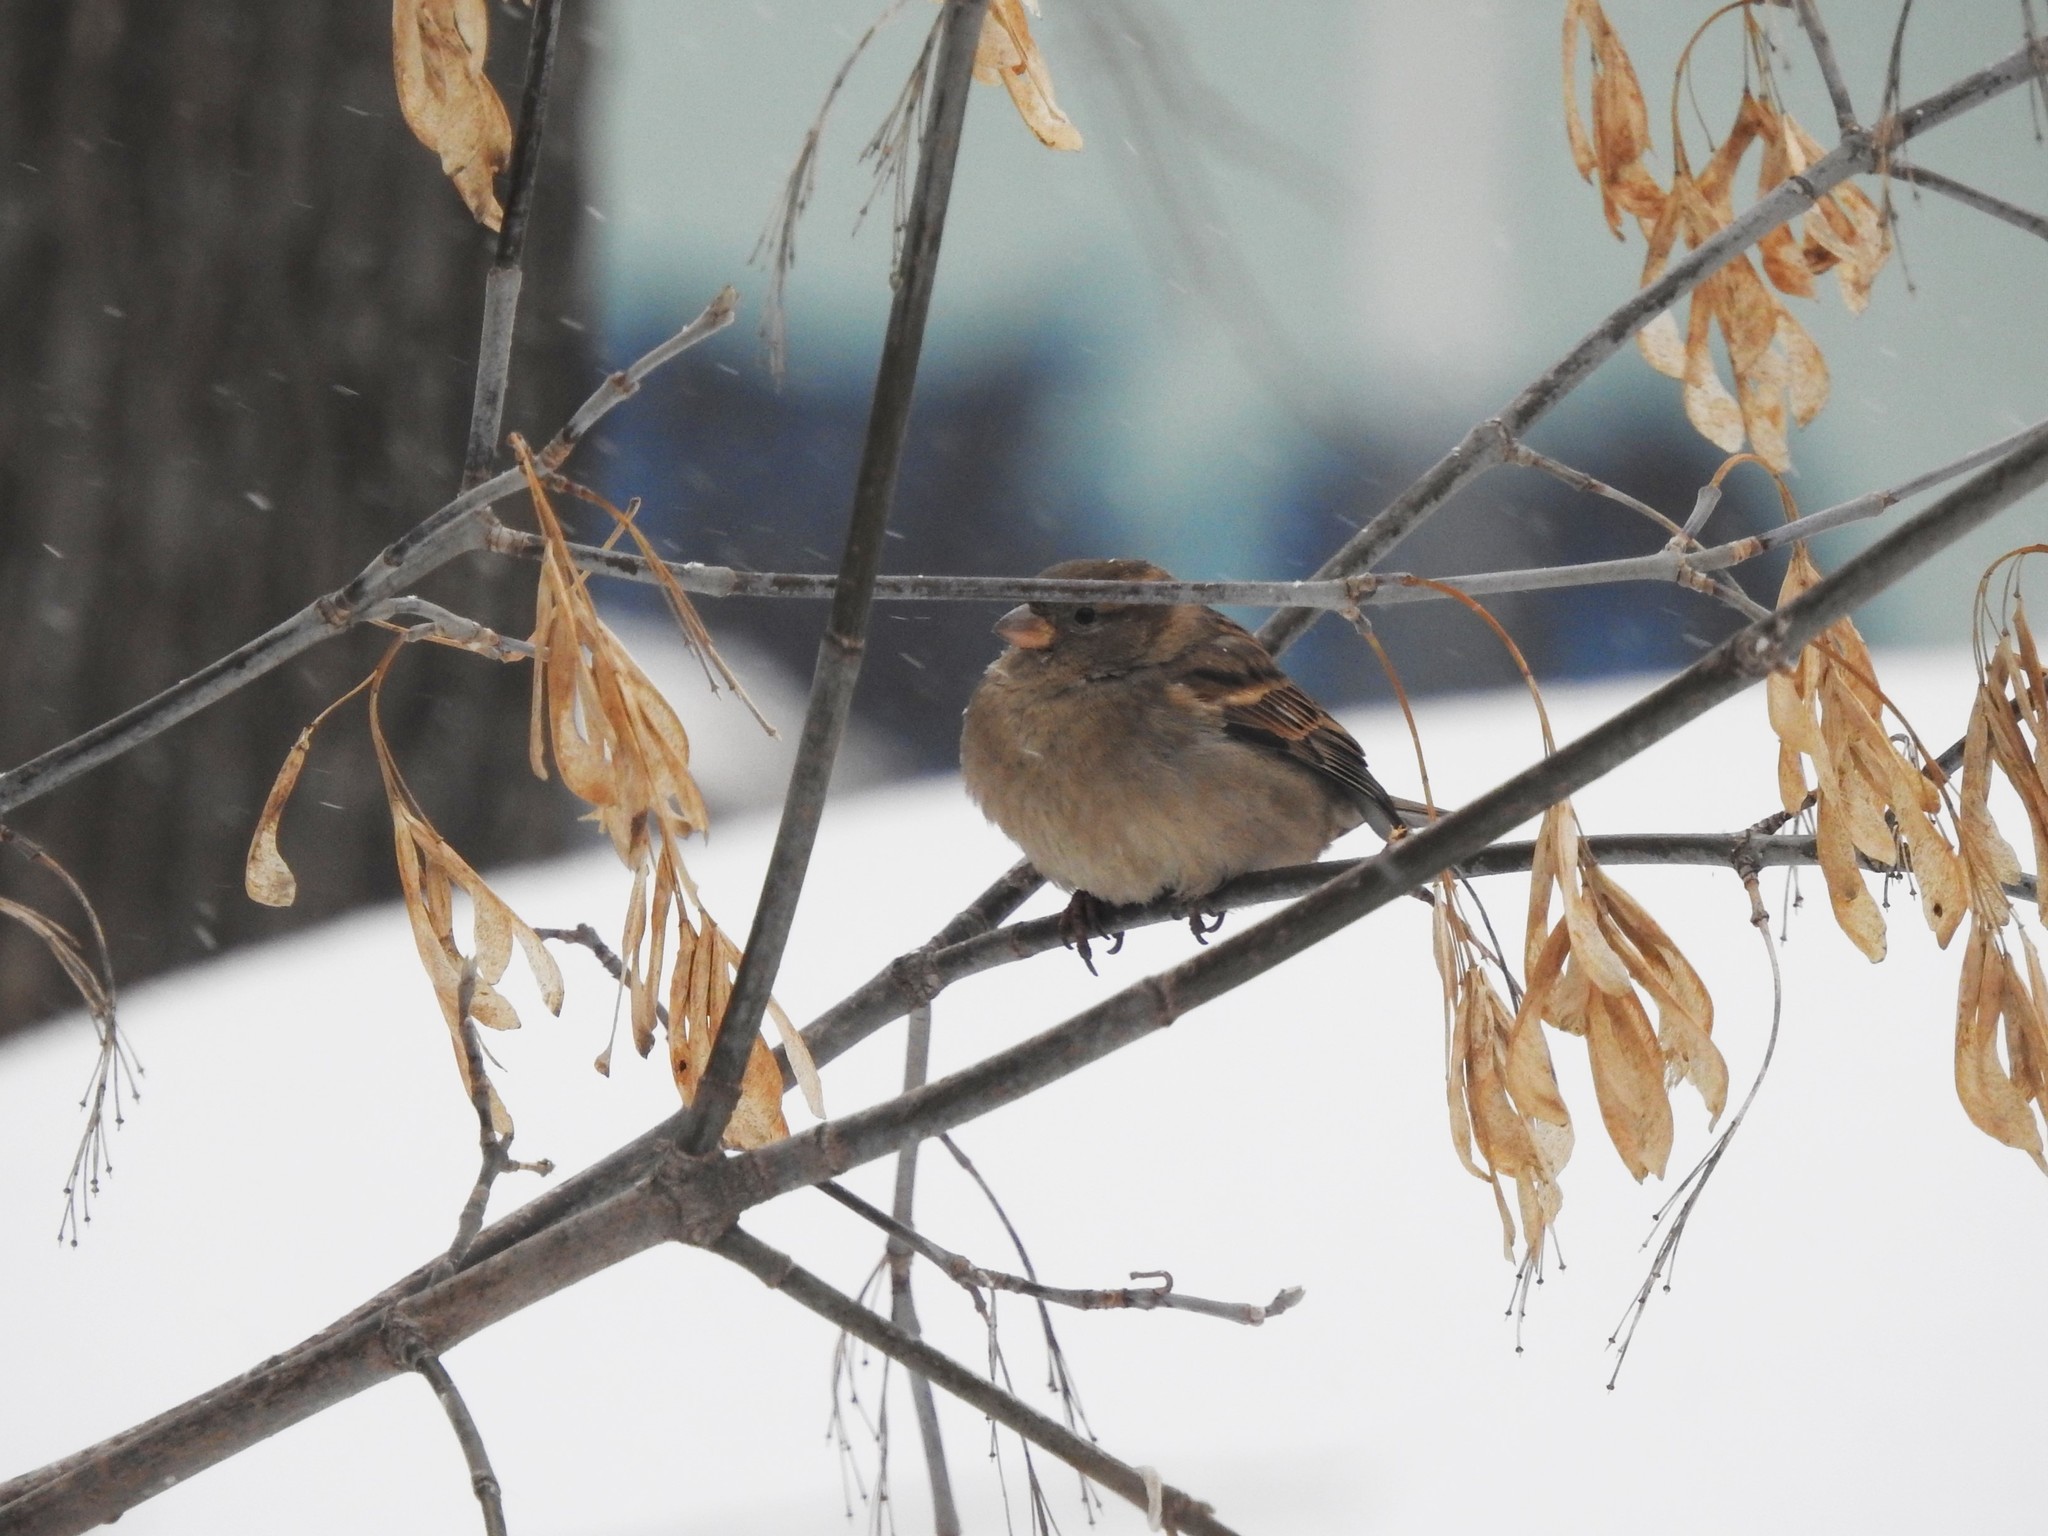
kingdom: Animalia
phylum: Chordata
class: Aves
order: Passeriformes
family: Passeridae
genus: Passer
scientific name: Passer domesticus
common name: House sparrow
